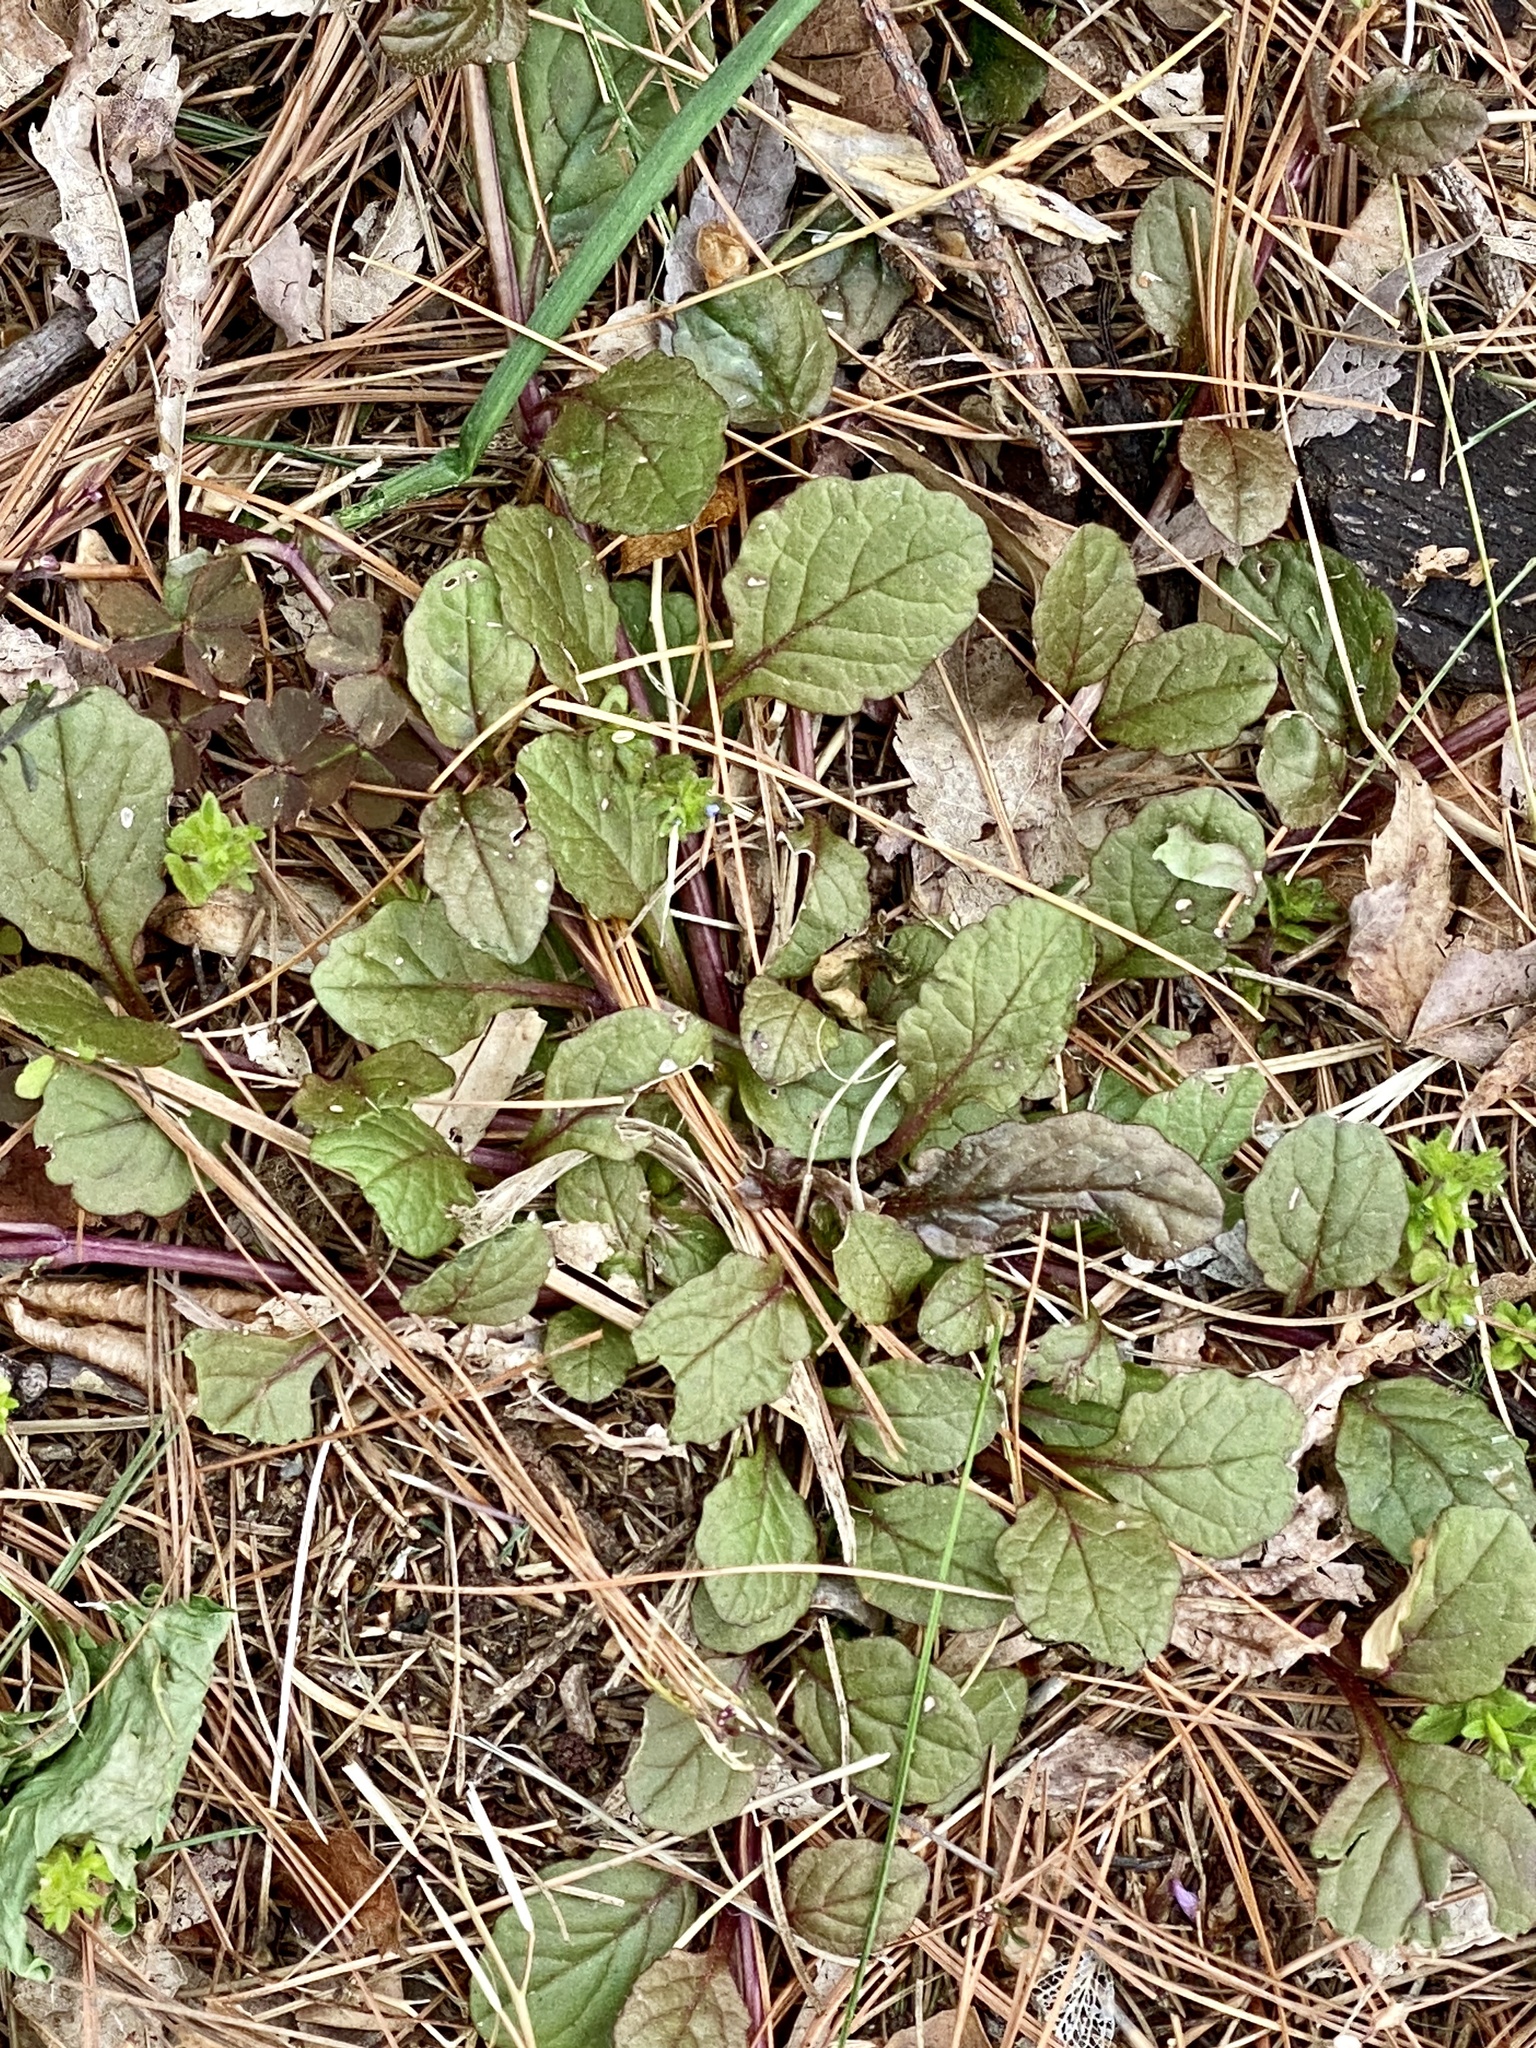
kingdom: Plantae
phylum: Tracheophyta
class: Magnoliopsida
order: Lamiales
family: Lamiaceae
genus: Ajuga
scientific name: Ajuga reptans
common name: Bugle
